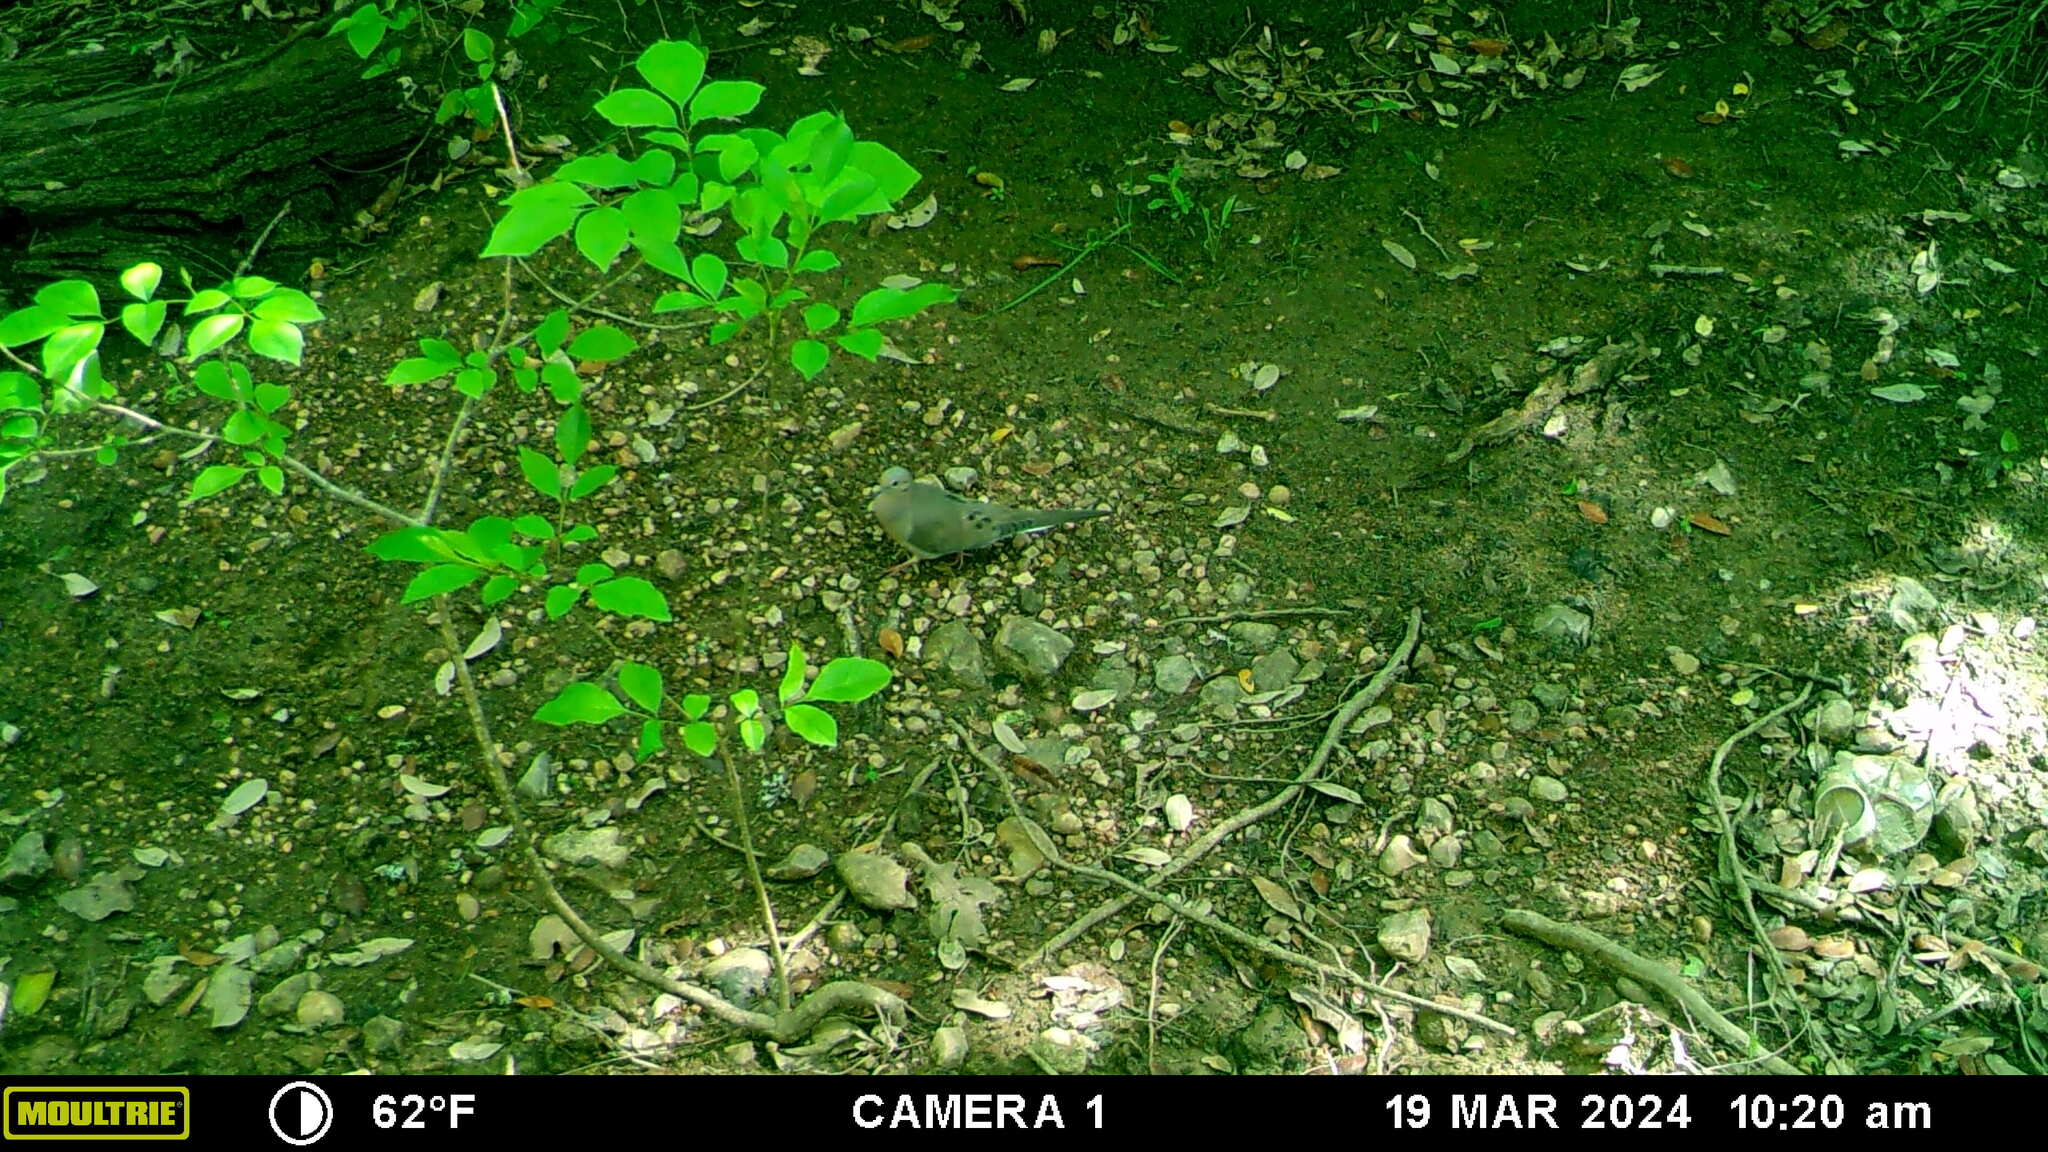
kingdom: Animalia
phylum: Chordata
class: Aves
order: Columbiformes
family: Columbidae
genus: Zenaida
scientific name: Zenaida macroura
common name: Mourning dove
